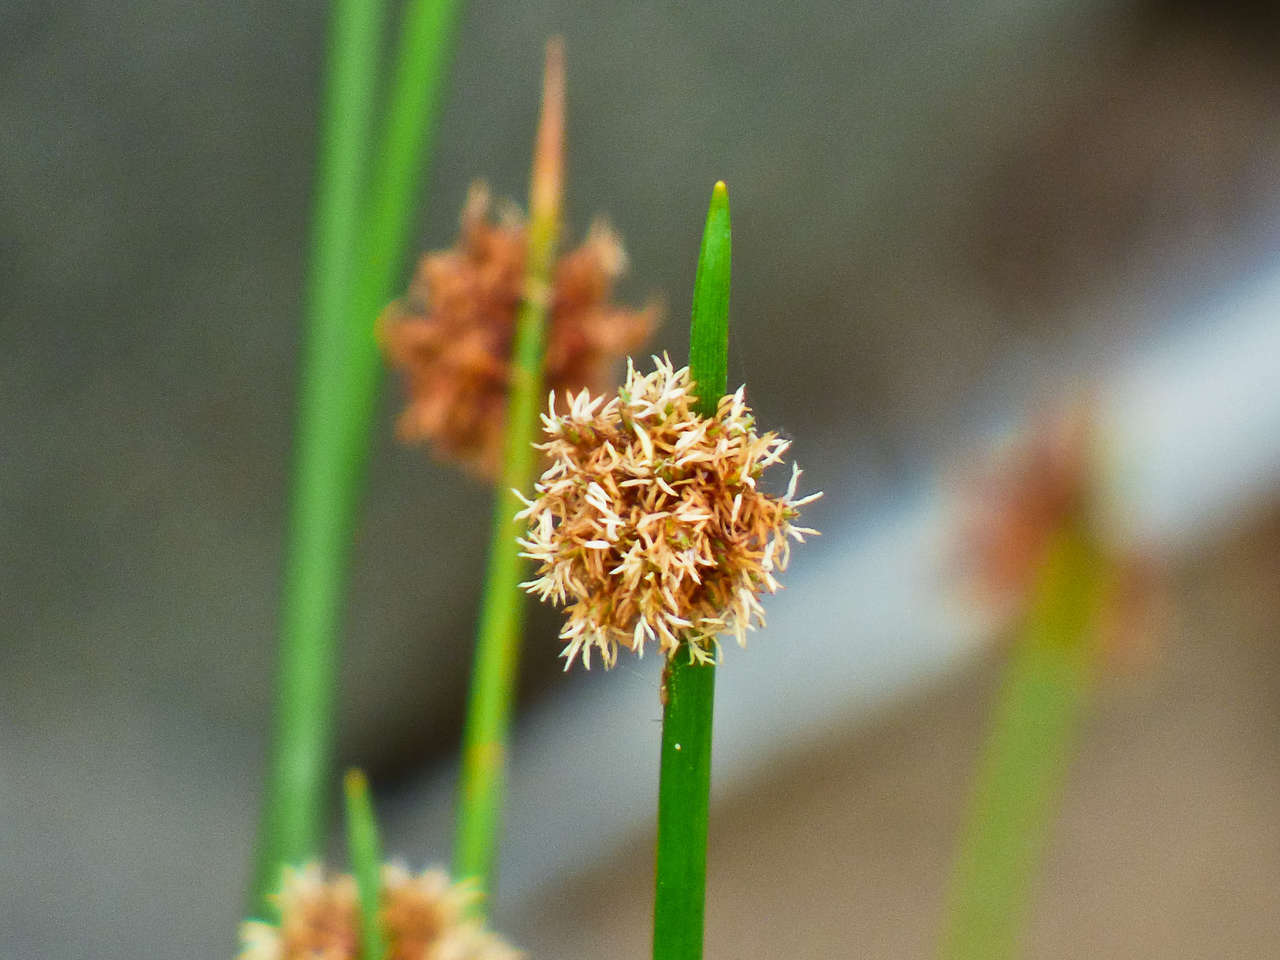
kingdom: Plantae
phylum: Tracheophyta
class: Liliopsida
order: Poales
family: Cyperaceae
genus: Ficinia
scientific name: Ficinia nodosa
